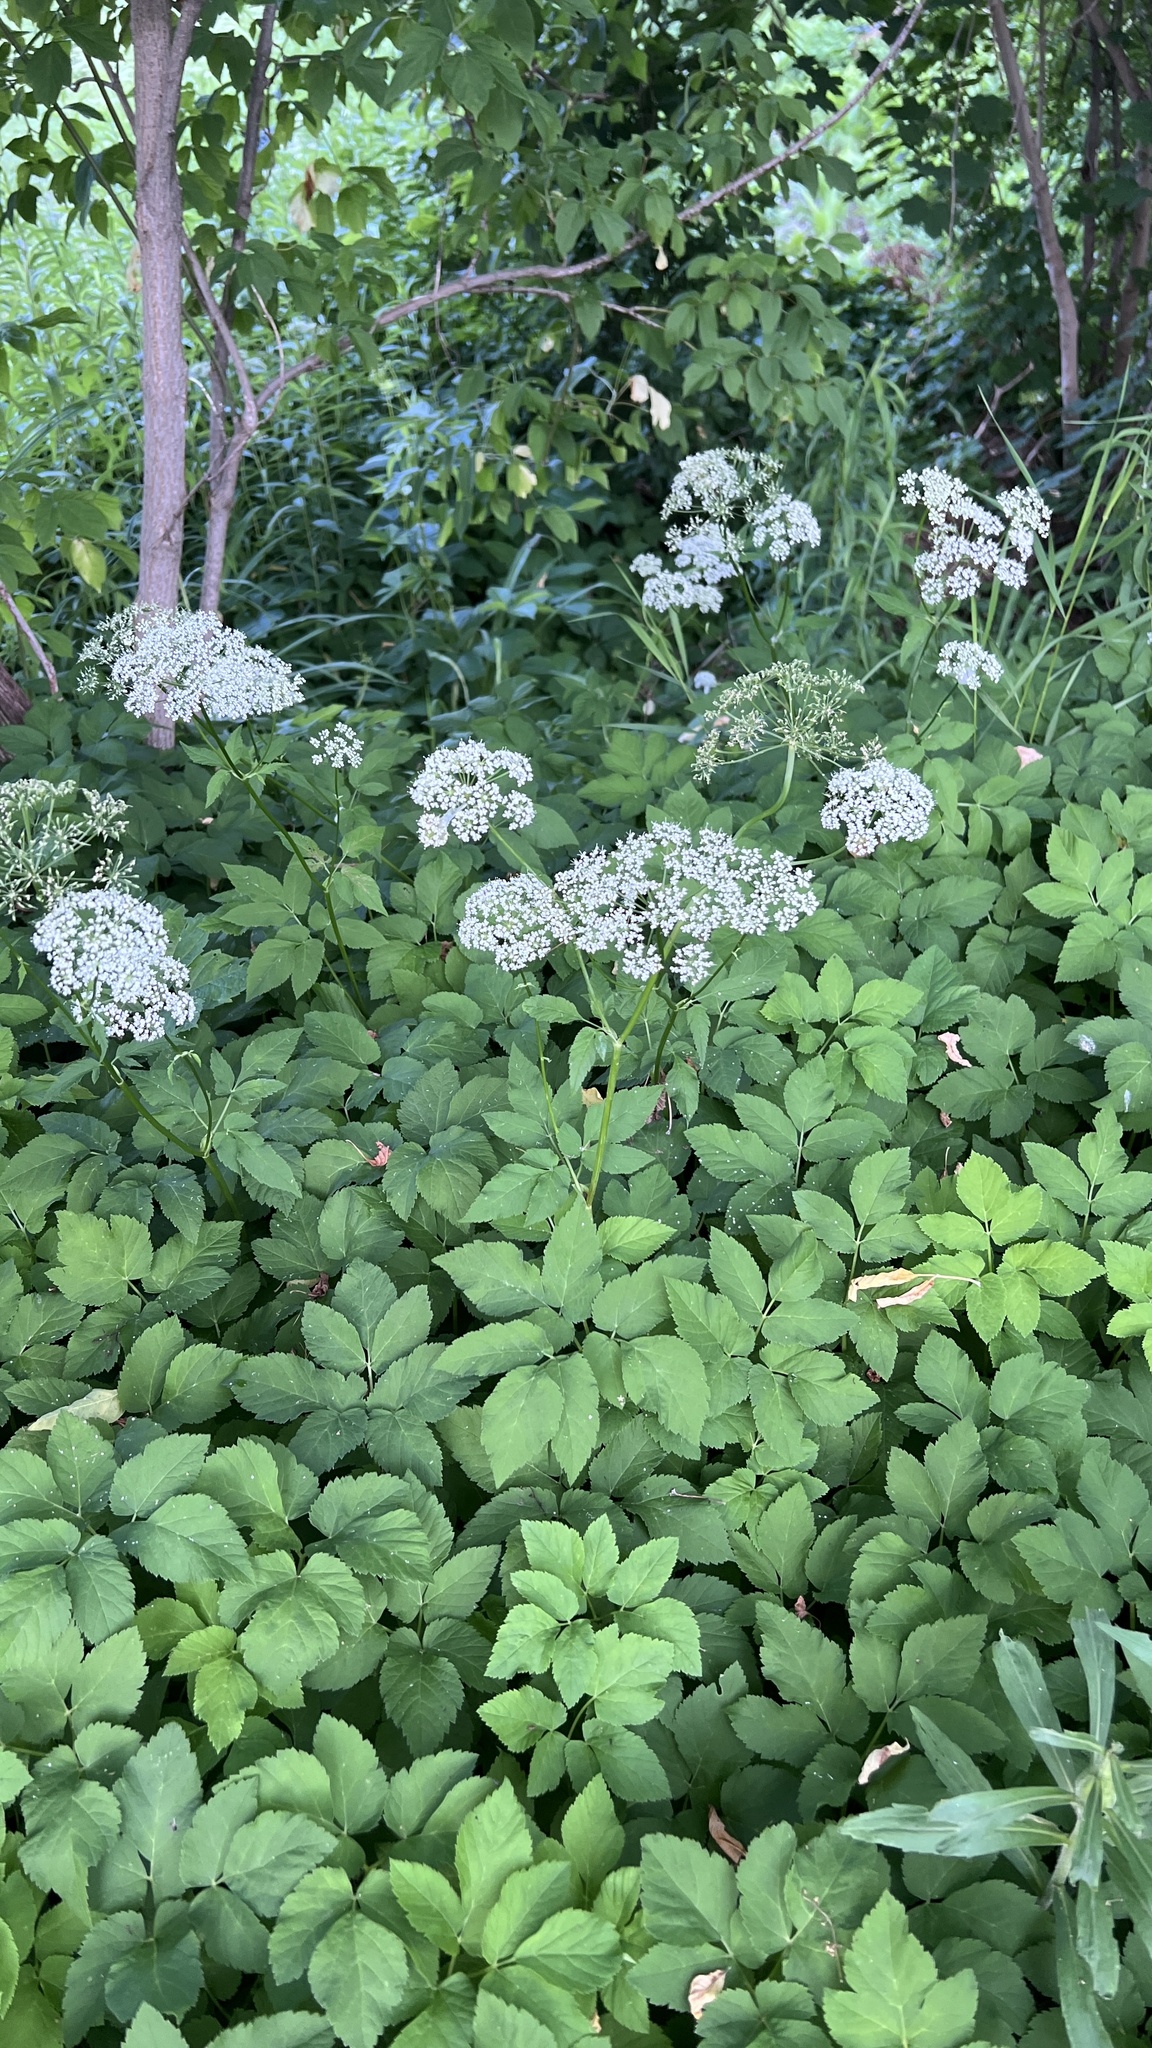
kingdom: Plantae
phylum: Tracheophyta
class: Magnoliopsida
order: Apiales
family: Apiaceae
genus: Aegopodium
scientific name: Aegopodium podagraria
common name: Ground-elder
